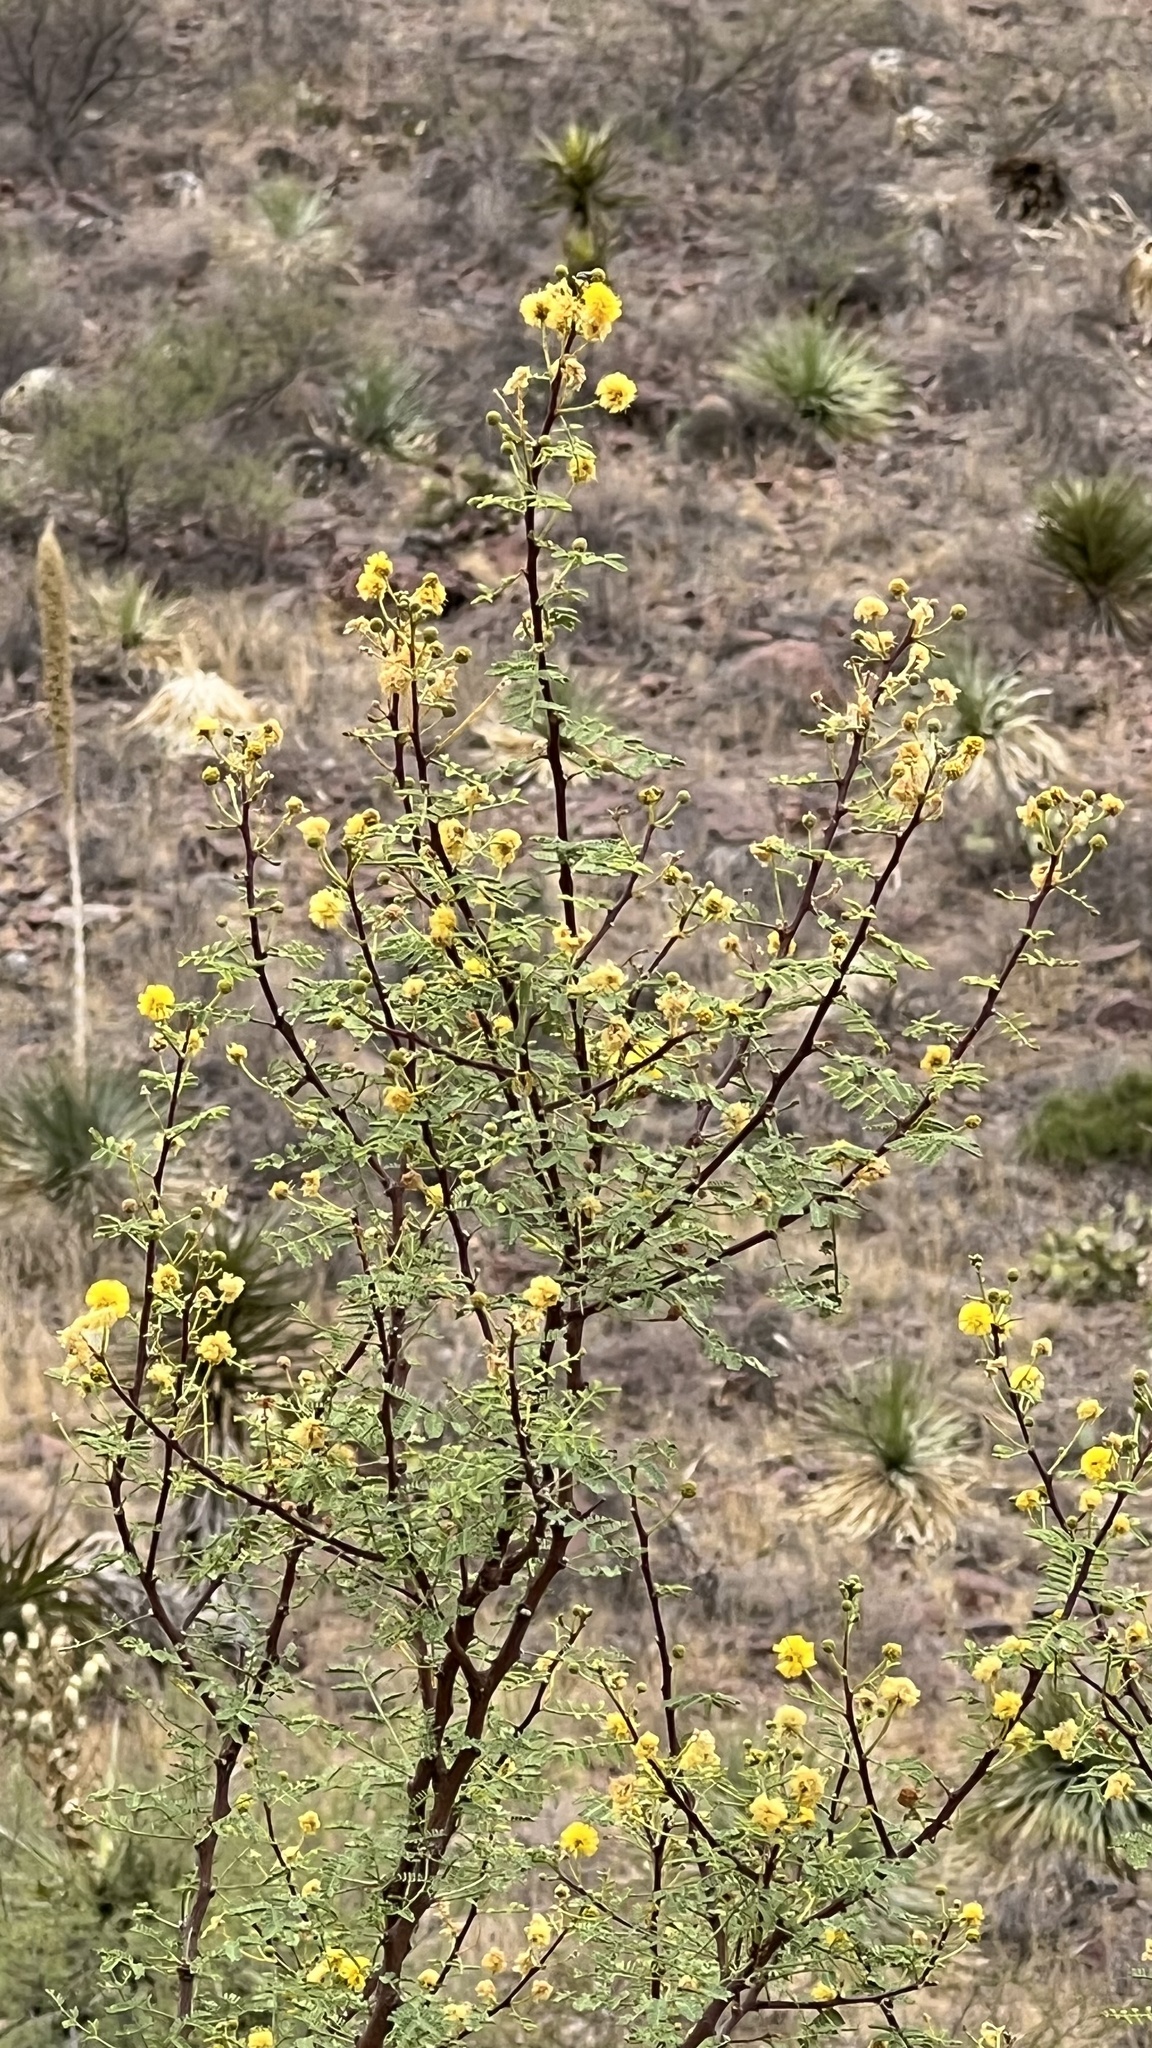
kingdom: Plantae
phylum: Tracheophyta
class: Magnoliopsida
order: Fabales
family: Fabaceae
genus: Vachellia
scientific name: Vachellia constricta
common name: Mescat acacia
